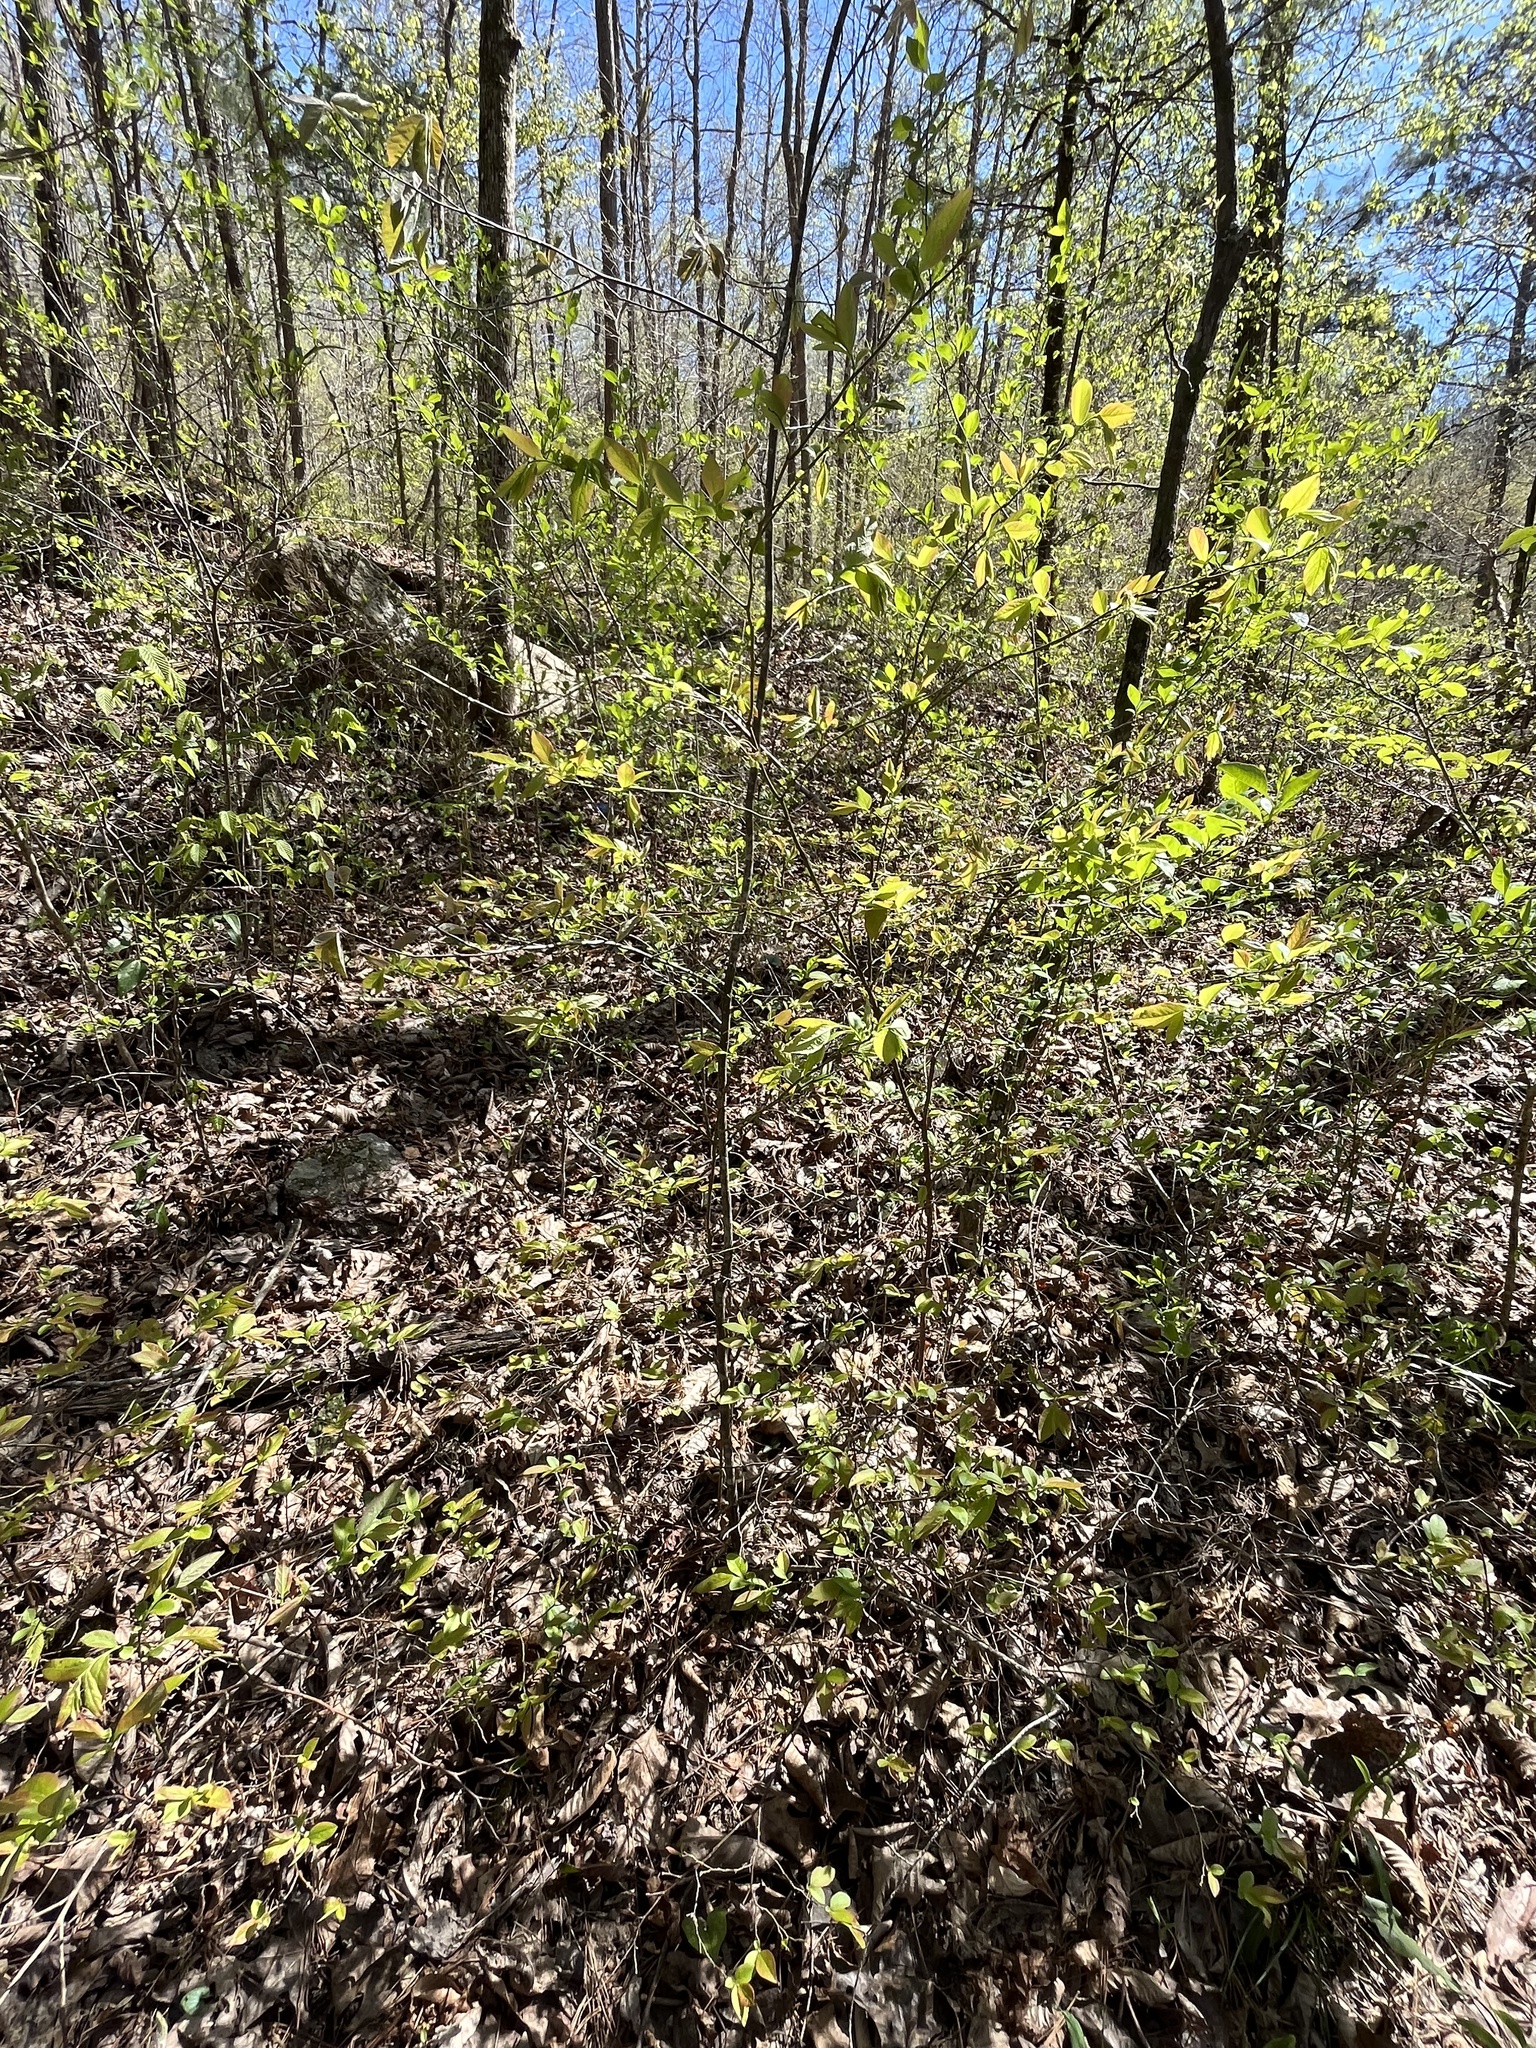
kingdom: Plantae
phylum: Tracheophyta
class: Magnoliopsida
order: Ericales
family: Ericaceae
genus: Vaccinium
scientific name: Vaccinium corymbosum
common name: Blueberry
